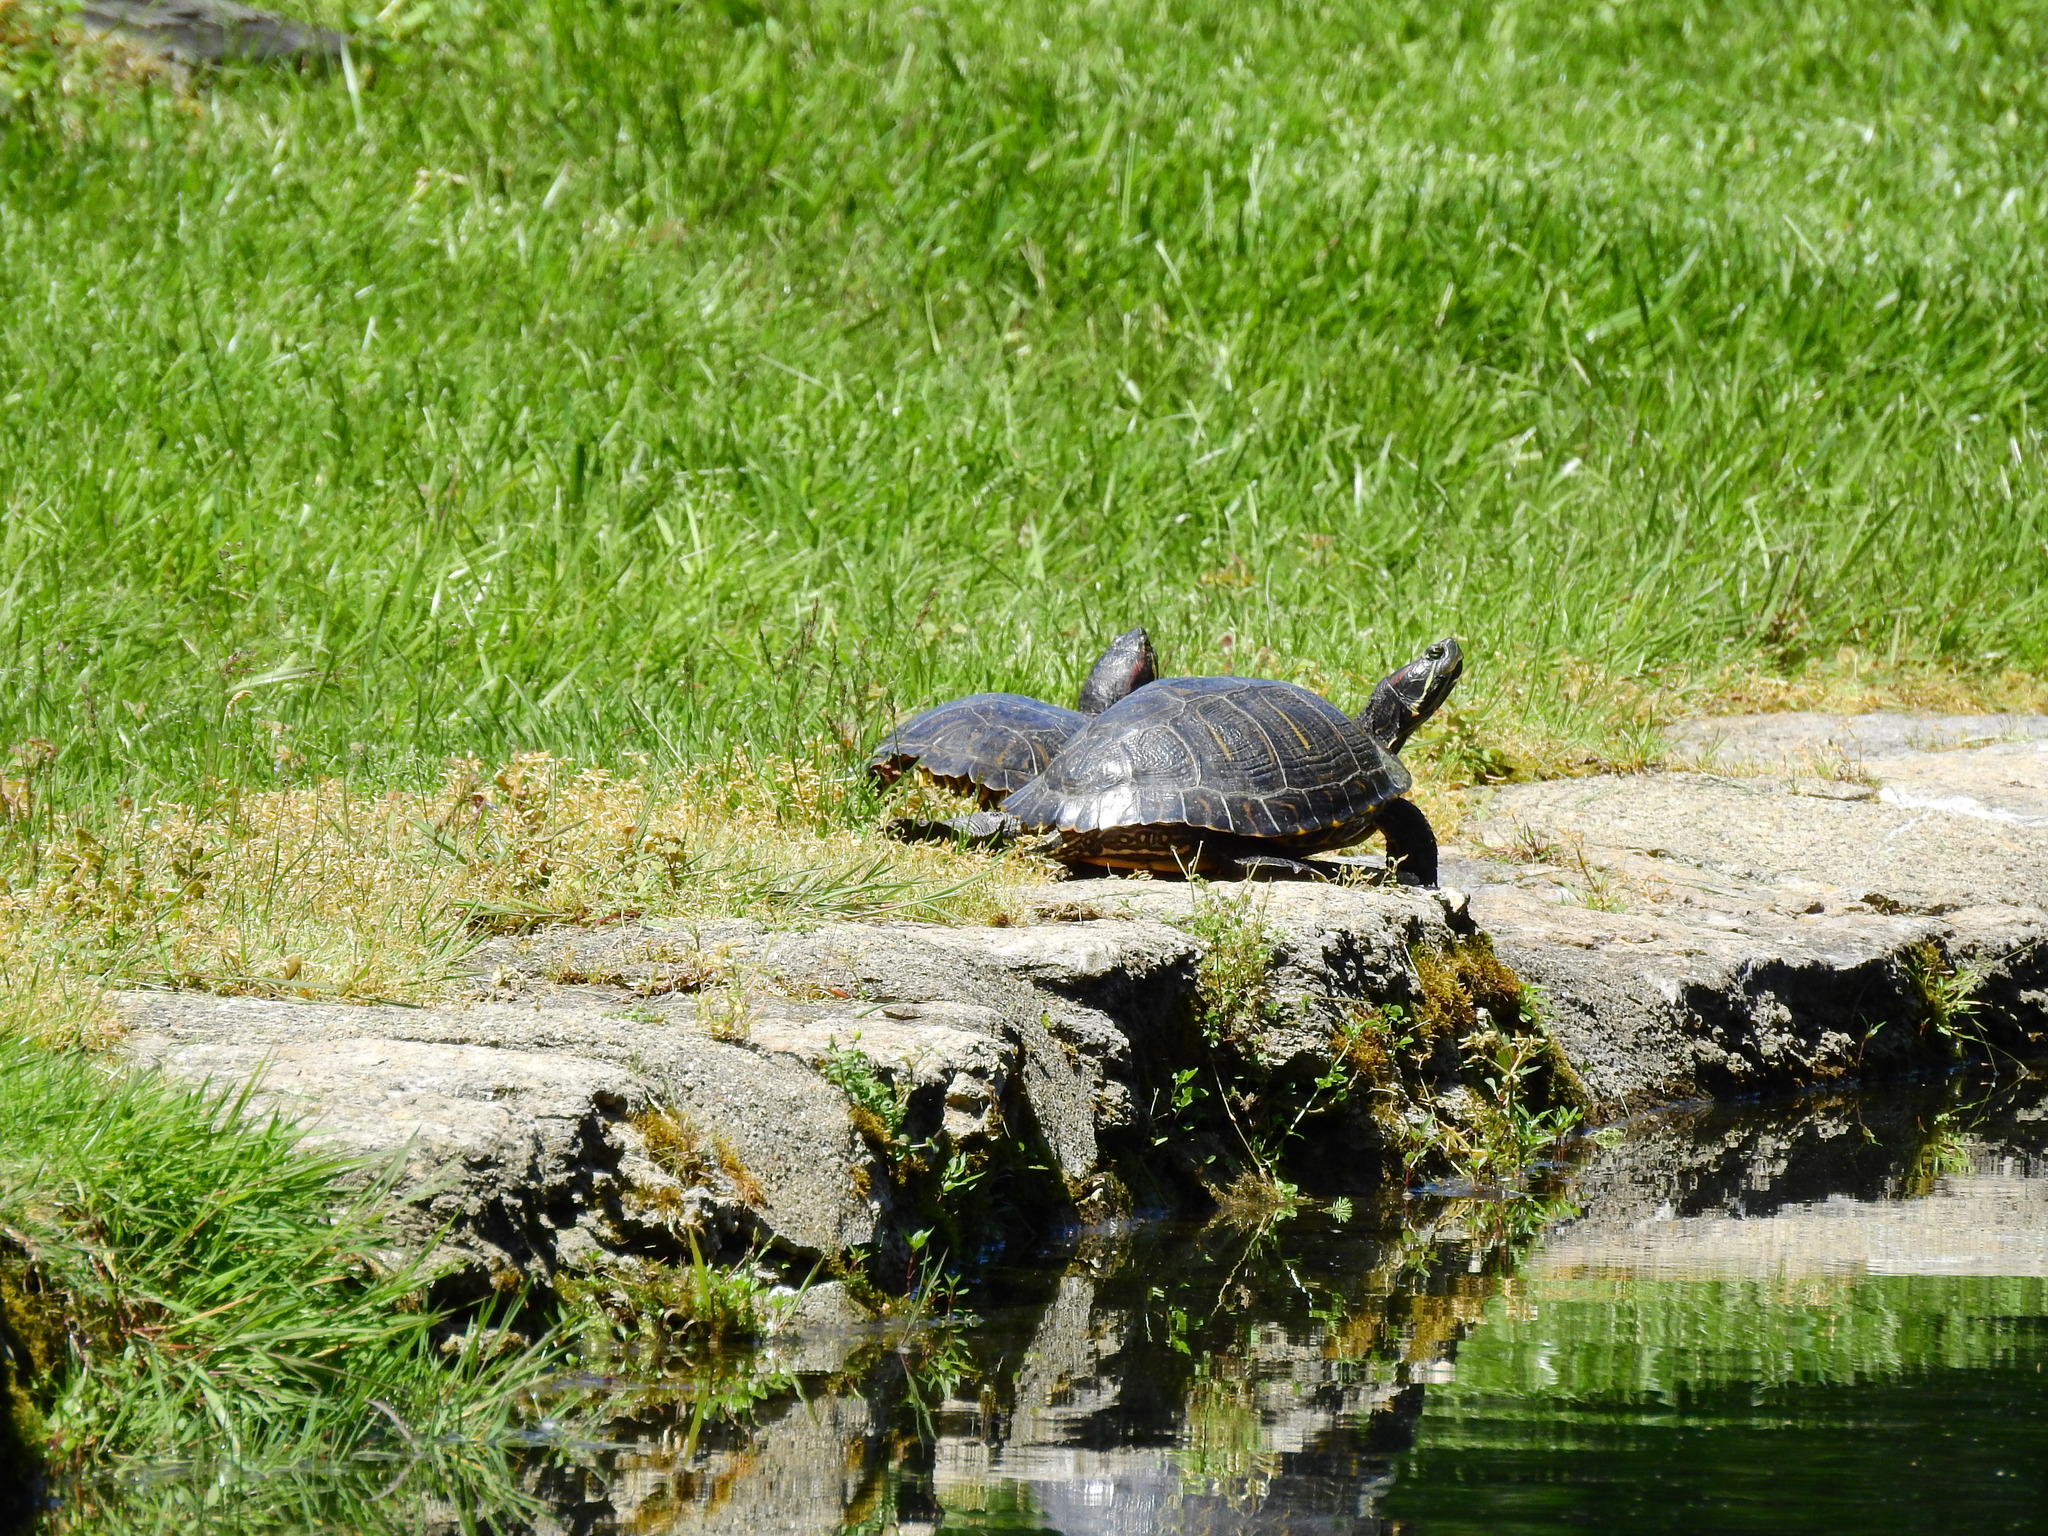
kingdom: Animalia
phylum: Chordata
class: Testudines
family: Emydidae
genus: Trachemys
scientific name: Trachemys scripta
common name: Slider
